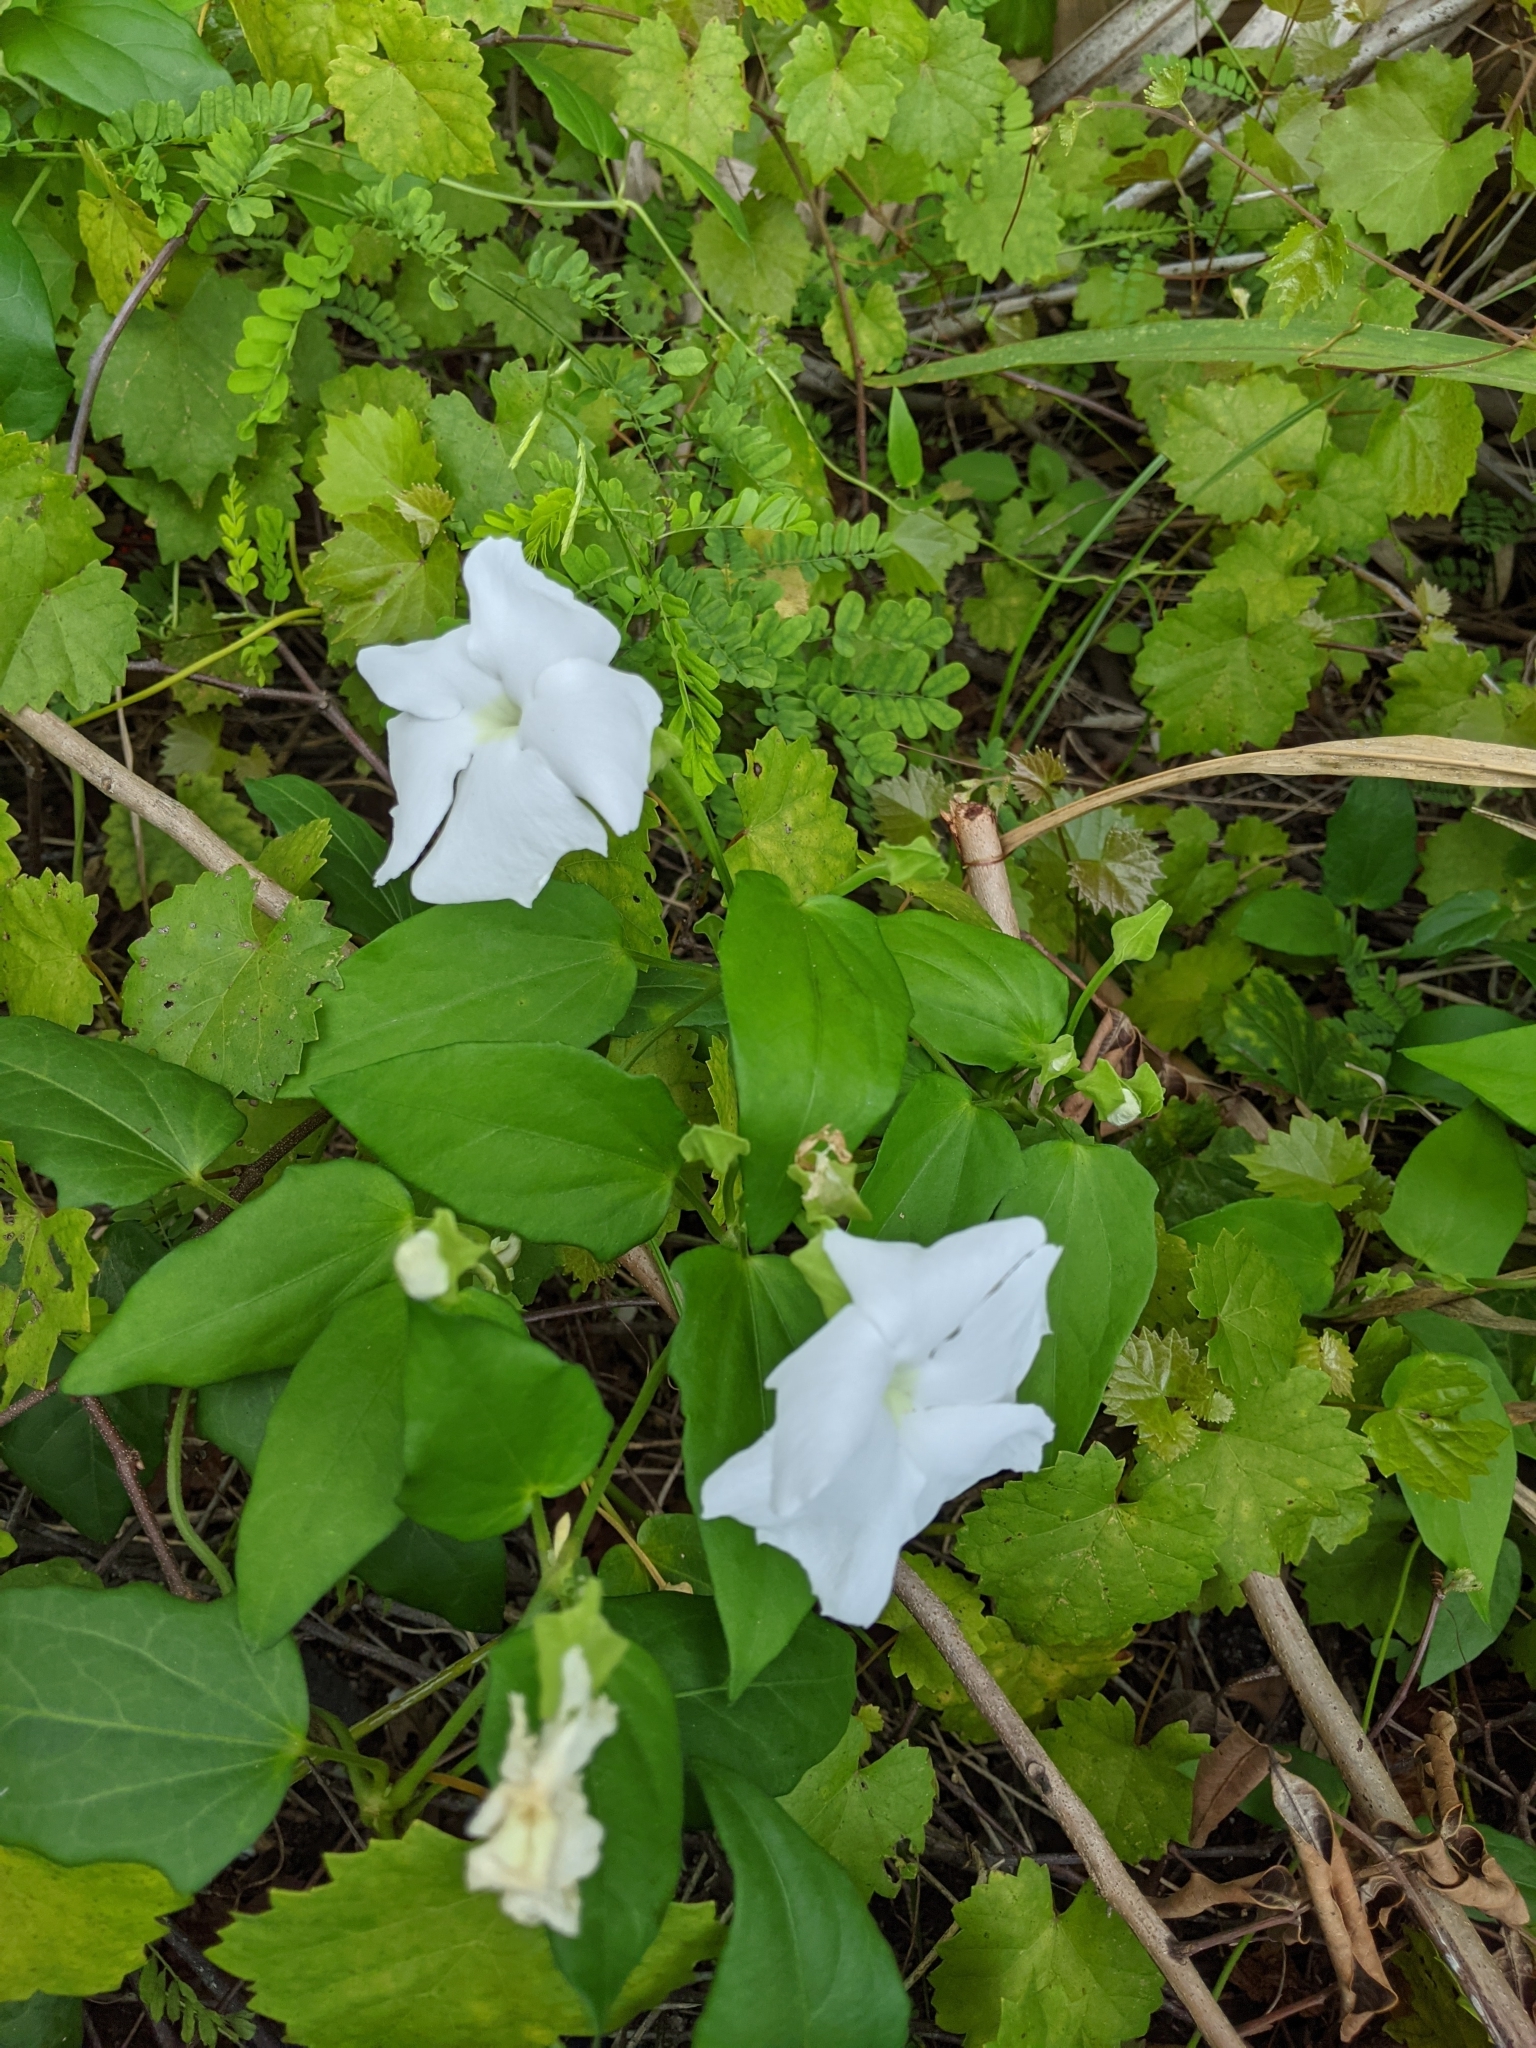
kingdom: Plantae
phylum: Tracheophyta
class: Magnoliopsida
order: Lamiales
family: Acanthaceae
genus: Thunbergia
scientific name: Thunbergia fragrans
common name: Whitelady
